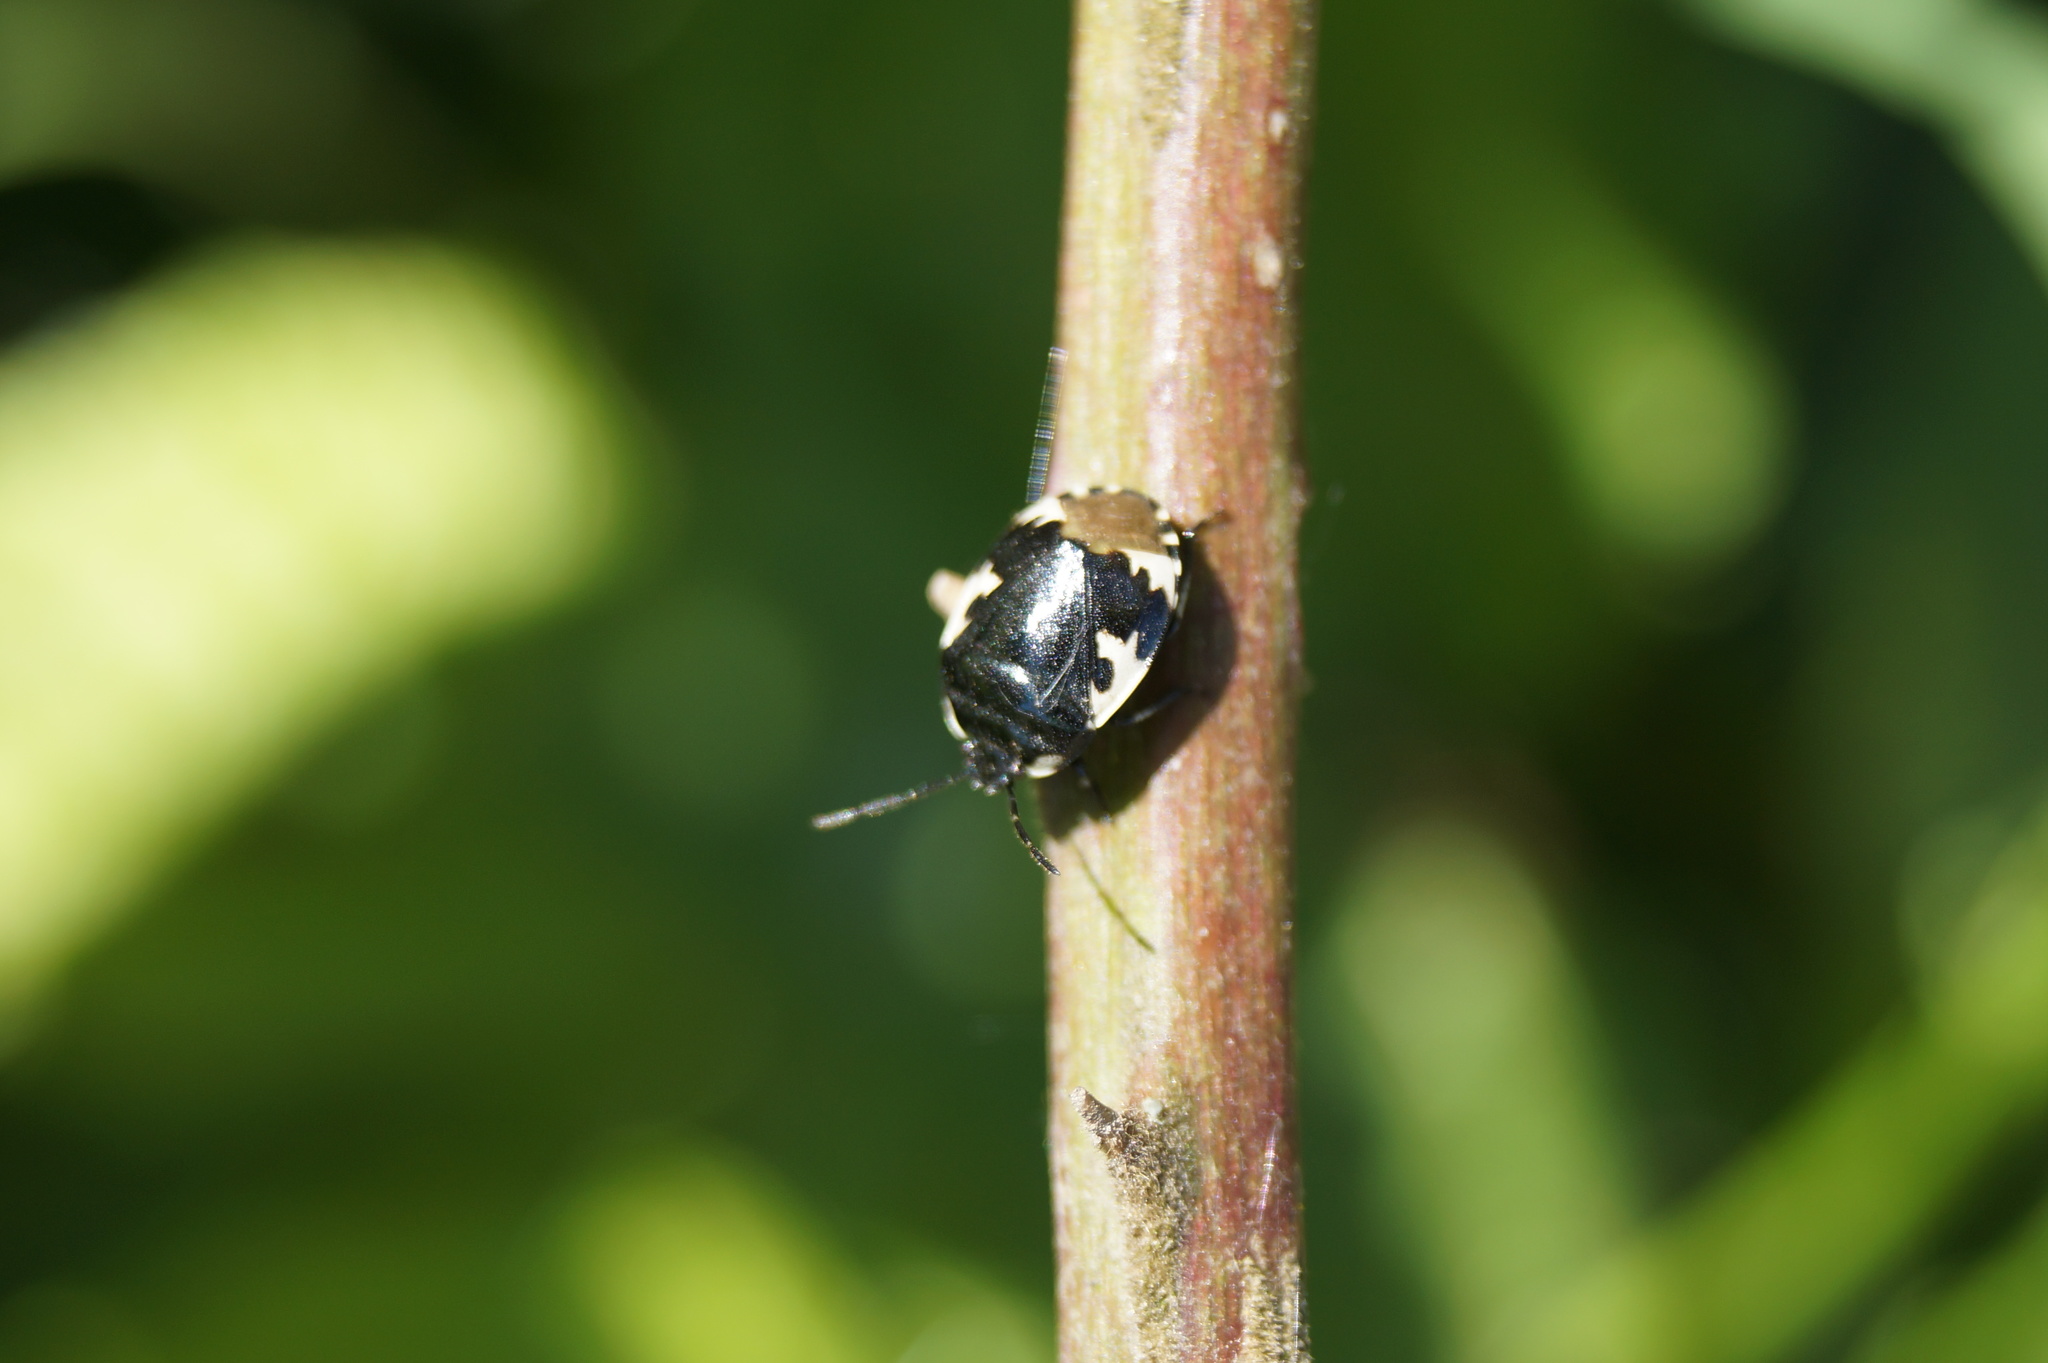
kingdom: Animalia
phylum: Arthropoda
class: Insecta
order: Hemiptera
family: Cydnidae
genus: Tritomegas
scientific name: Tritomegas bicolor
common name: Pied shieldbug
